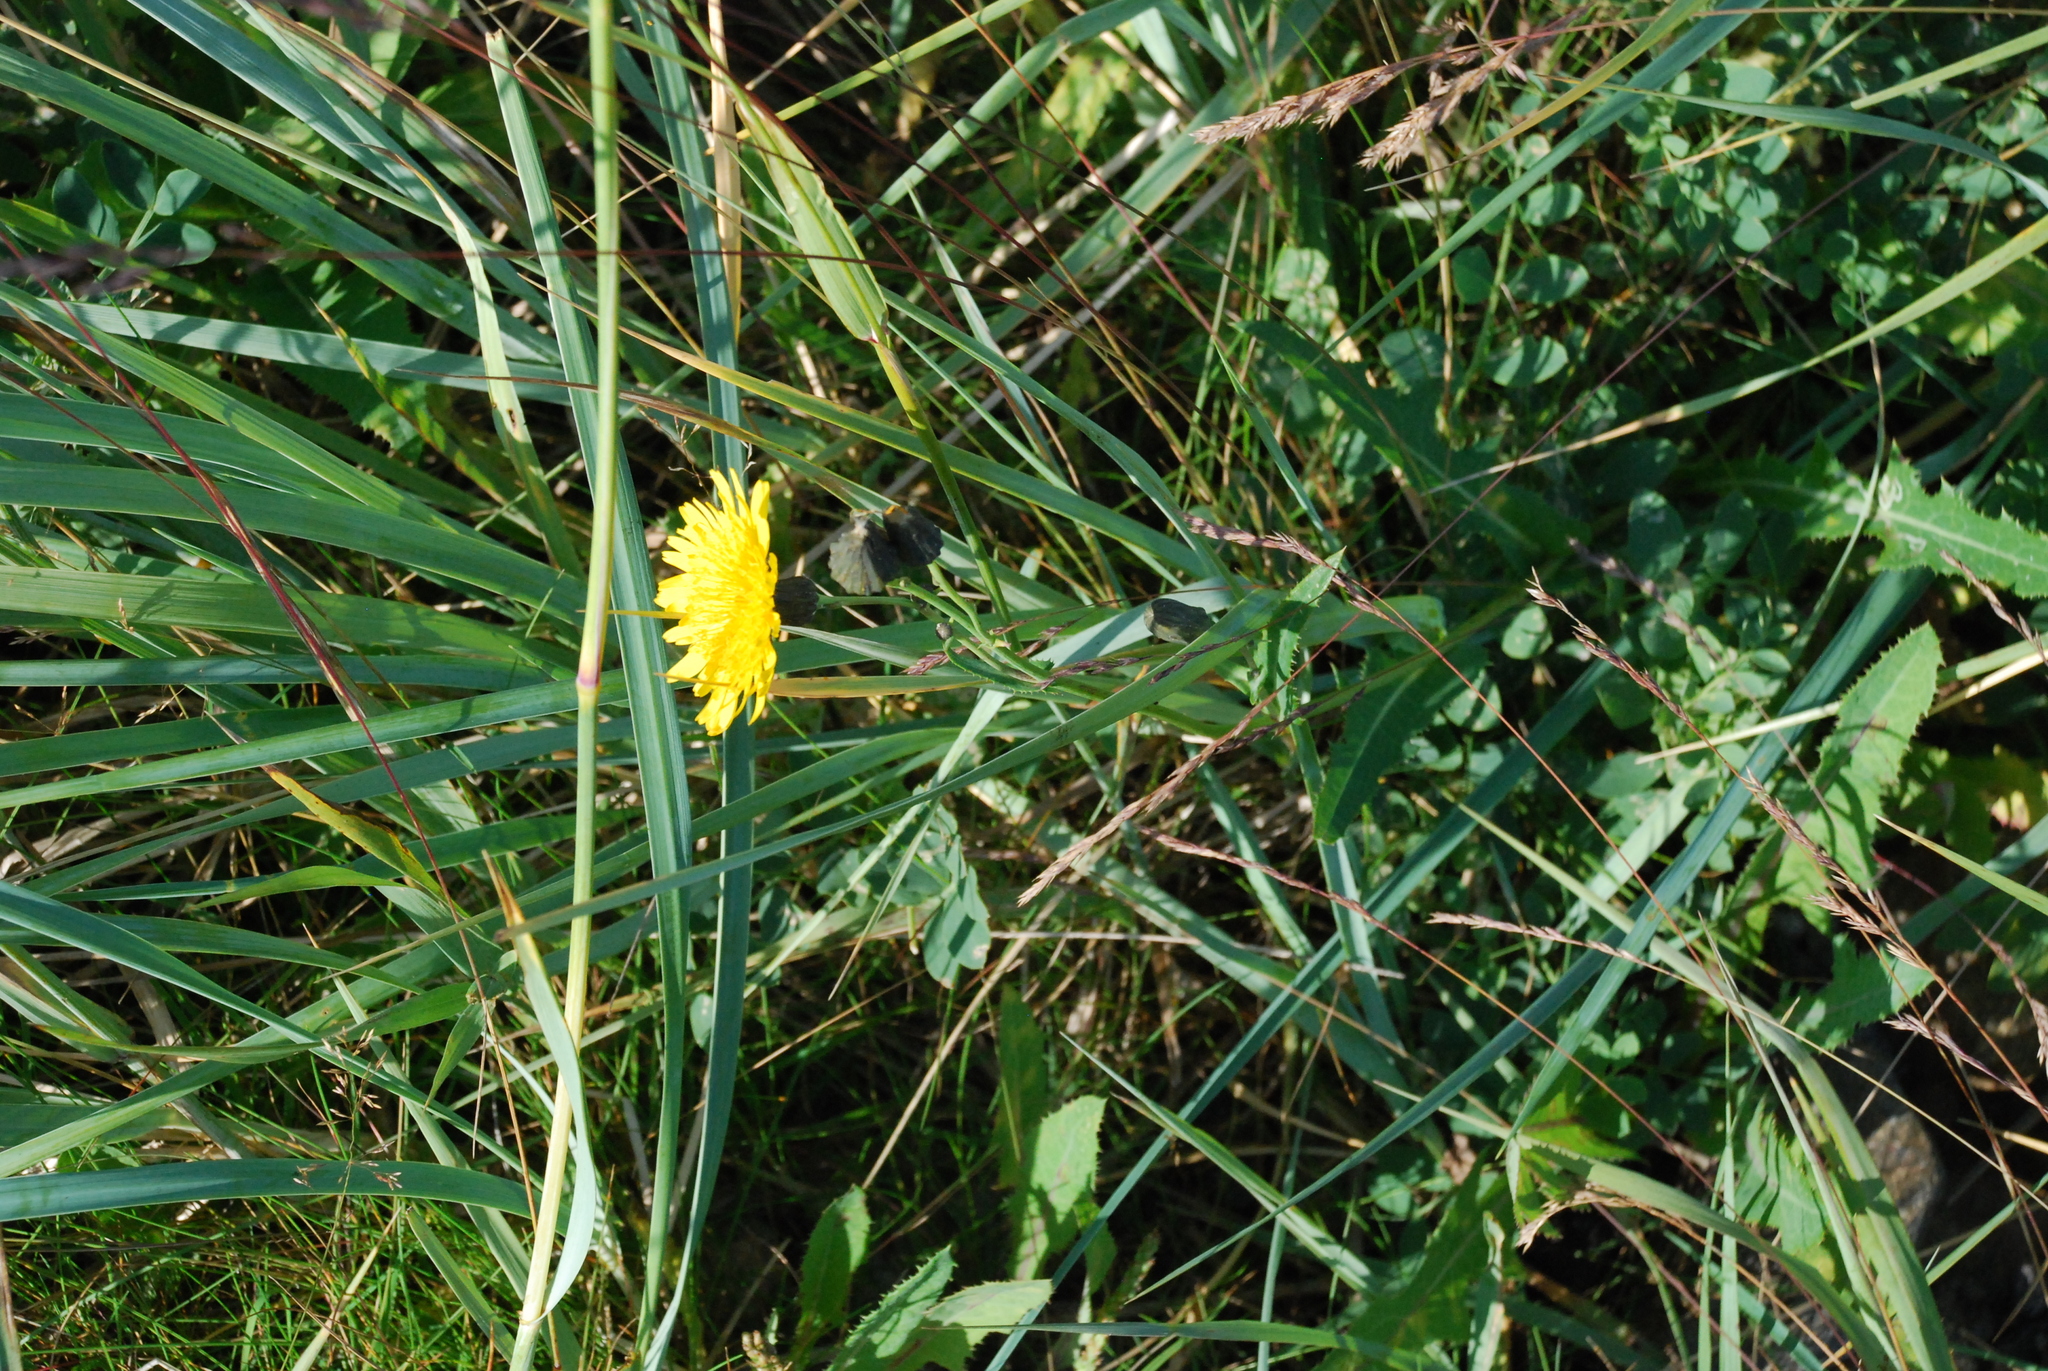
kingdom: Plantae
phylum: Tracheophyta
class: Magnoliopsida
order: Asterales
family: Asteraceae
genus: Sonchus
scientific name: Sonchus arvensis
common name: Perennial sow-thistle
